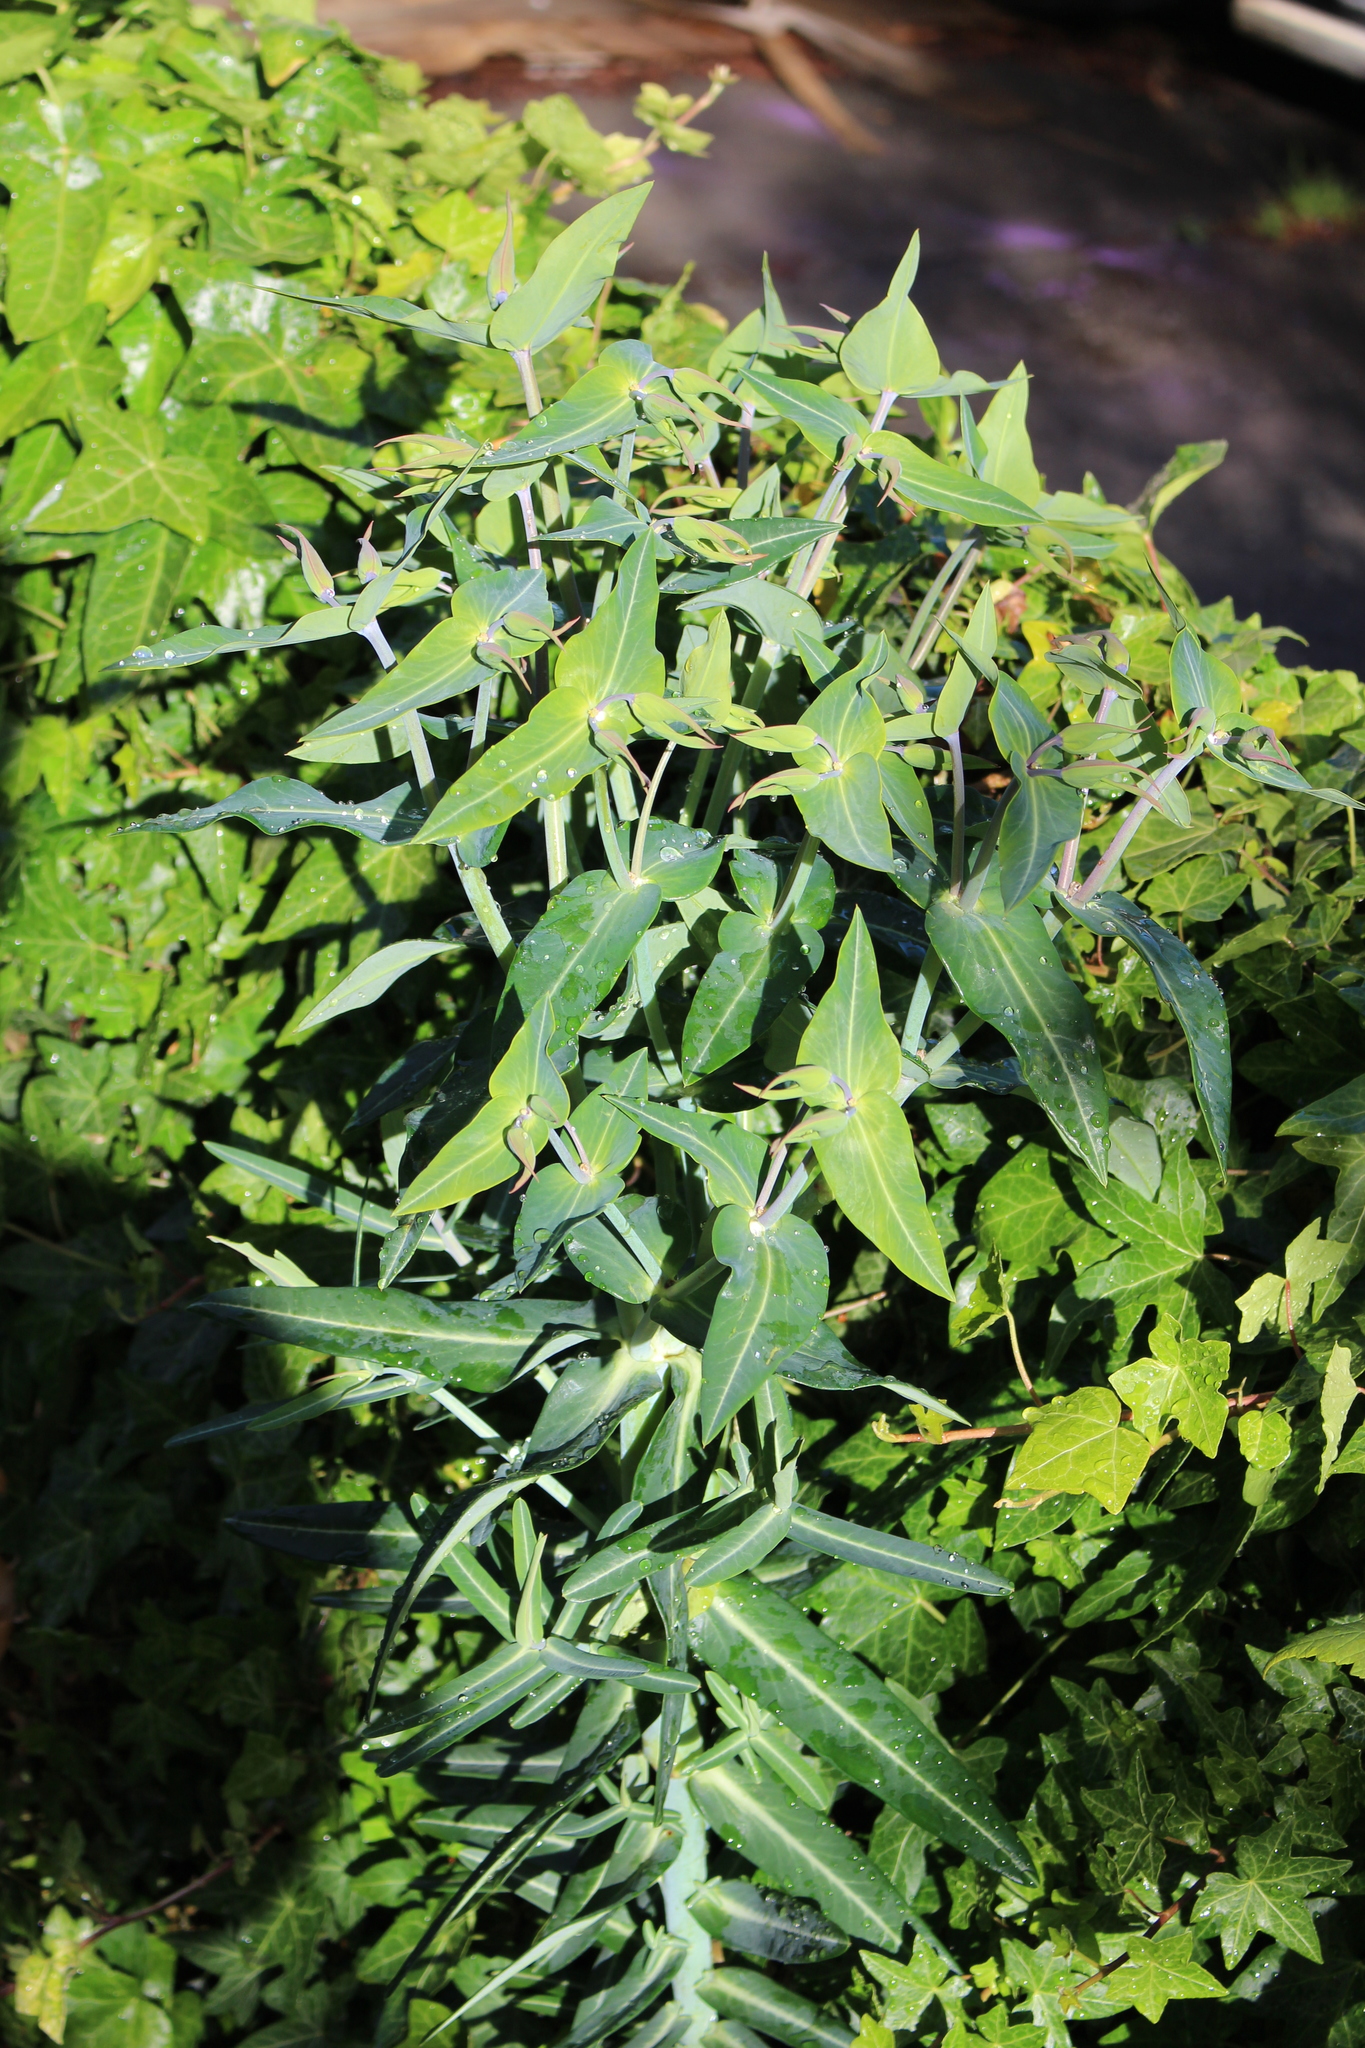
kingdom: Plantae
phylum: Tracheophyta
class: Magnoliopsida
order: Malpighiales
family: Euphorbiaceae
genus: Euphorbia
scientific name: Euphorbia lathyris
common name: Caper spurge
